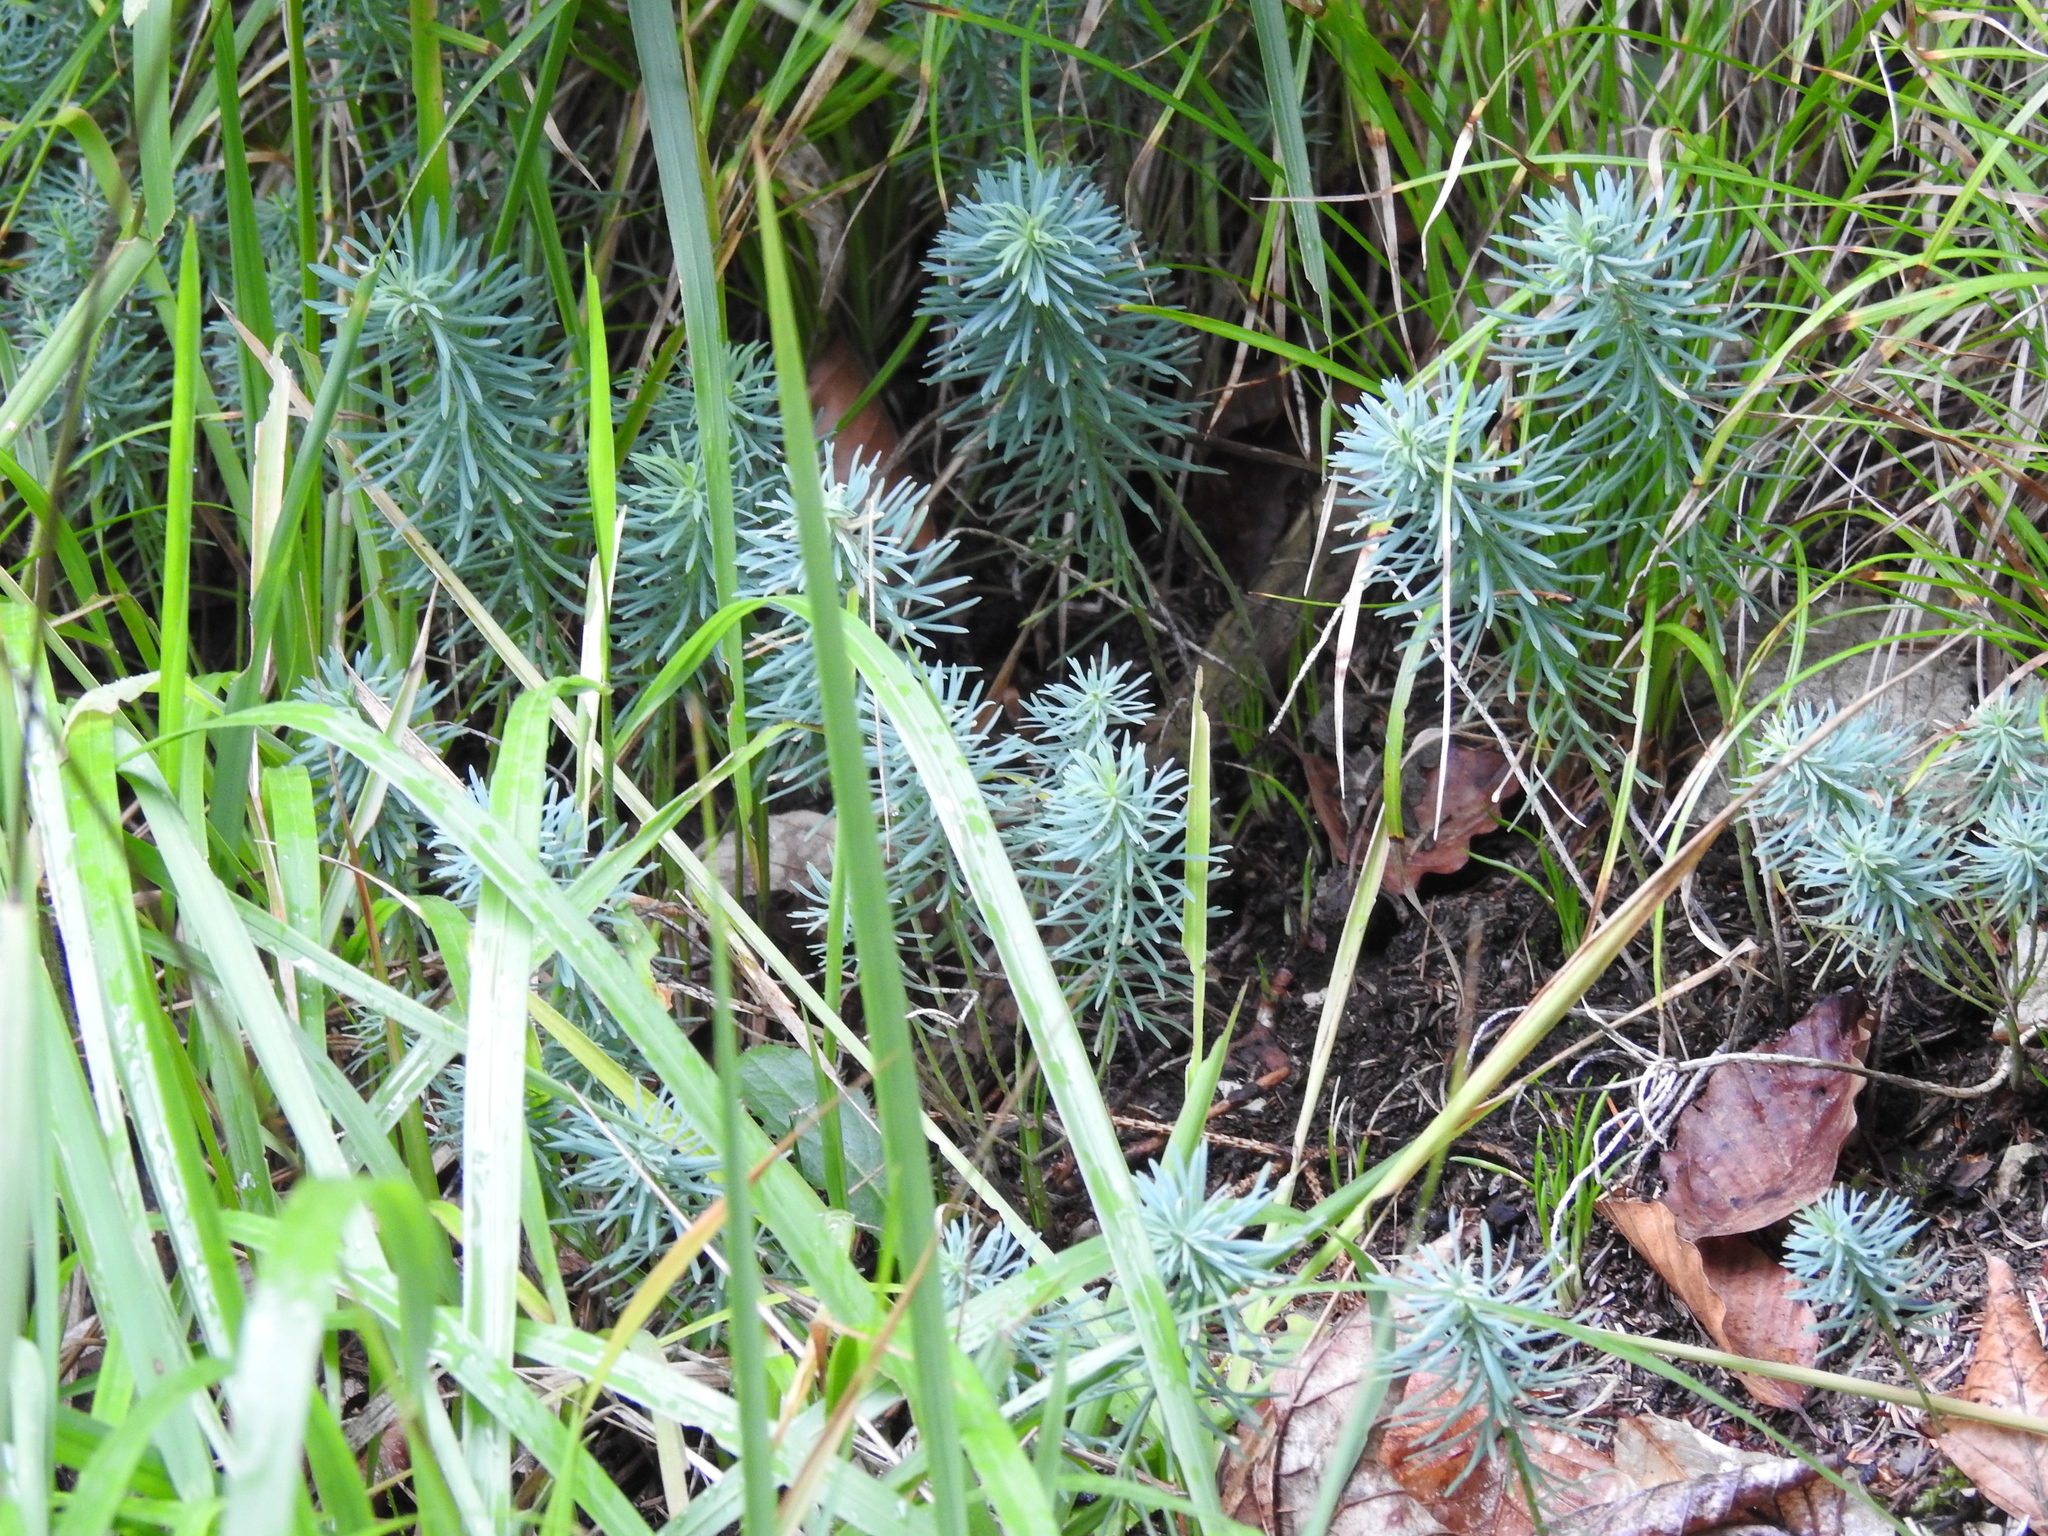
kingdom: Plantae
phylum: Tracheophyta
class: Magnoliopsida
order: Malpighiales
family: Euphorbiaceae
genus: Euphorbia
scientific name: Euphorbia cyparissias
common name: Cypress spurge
